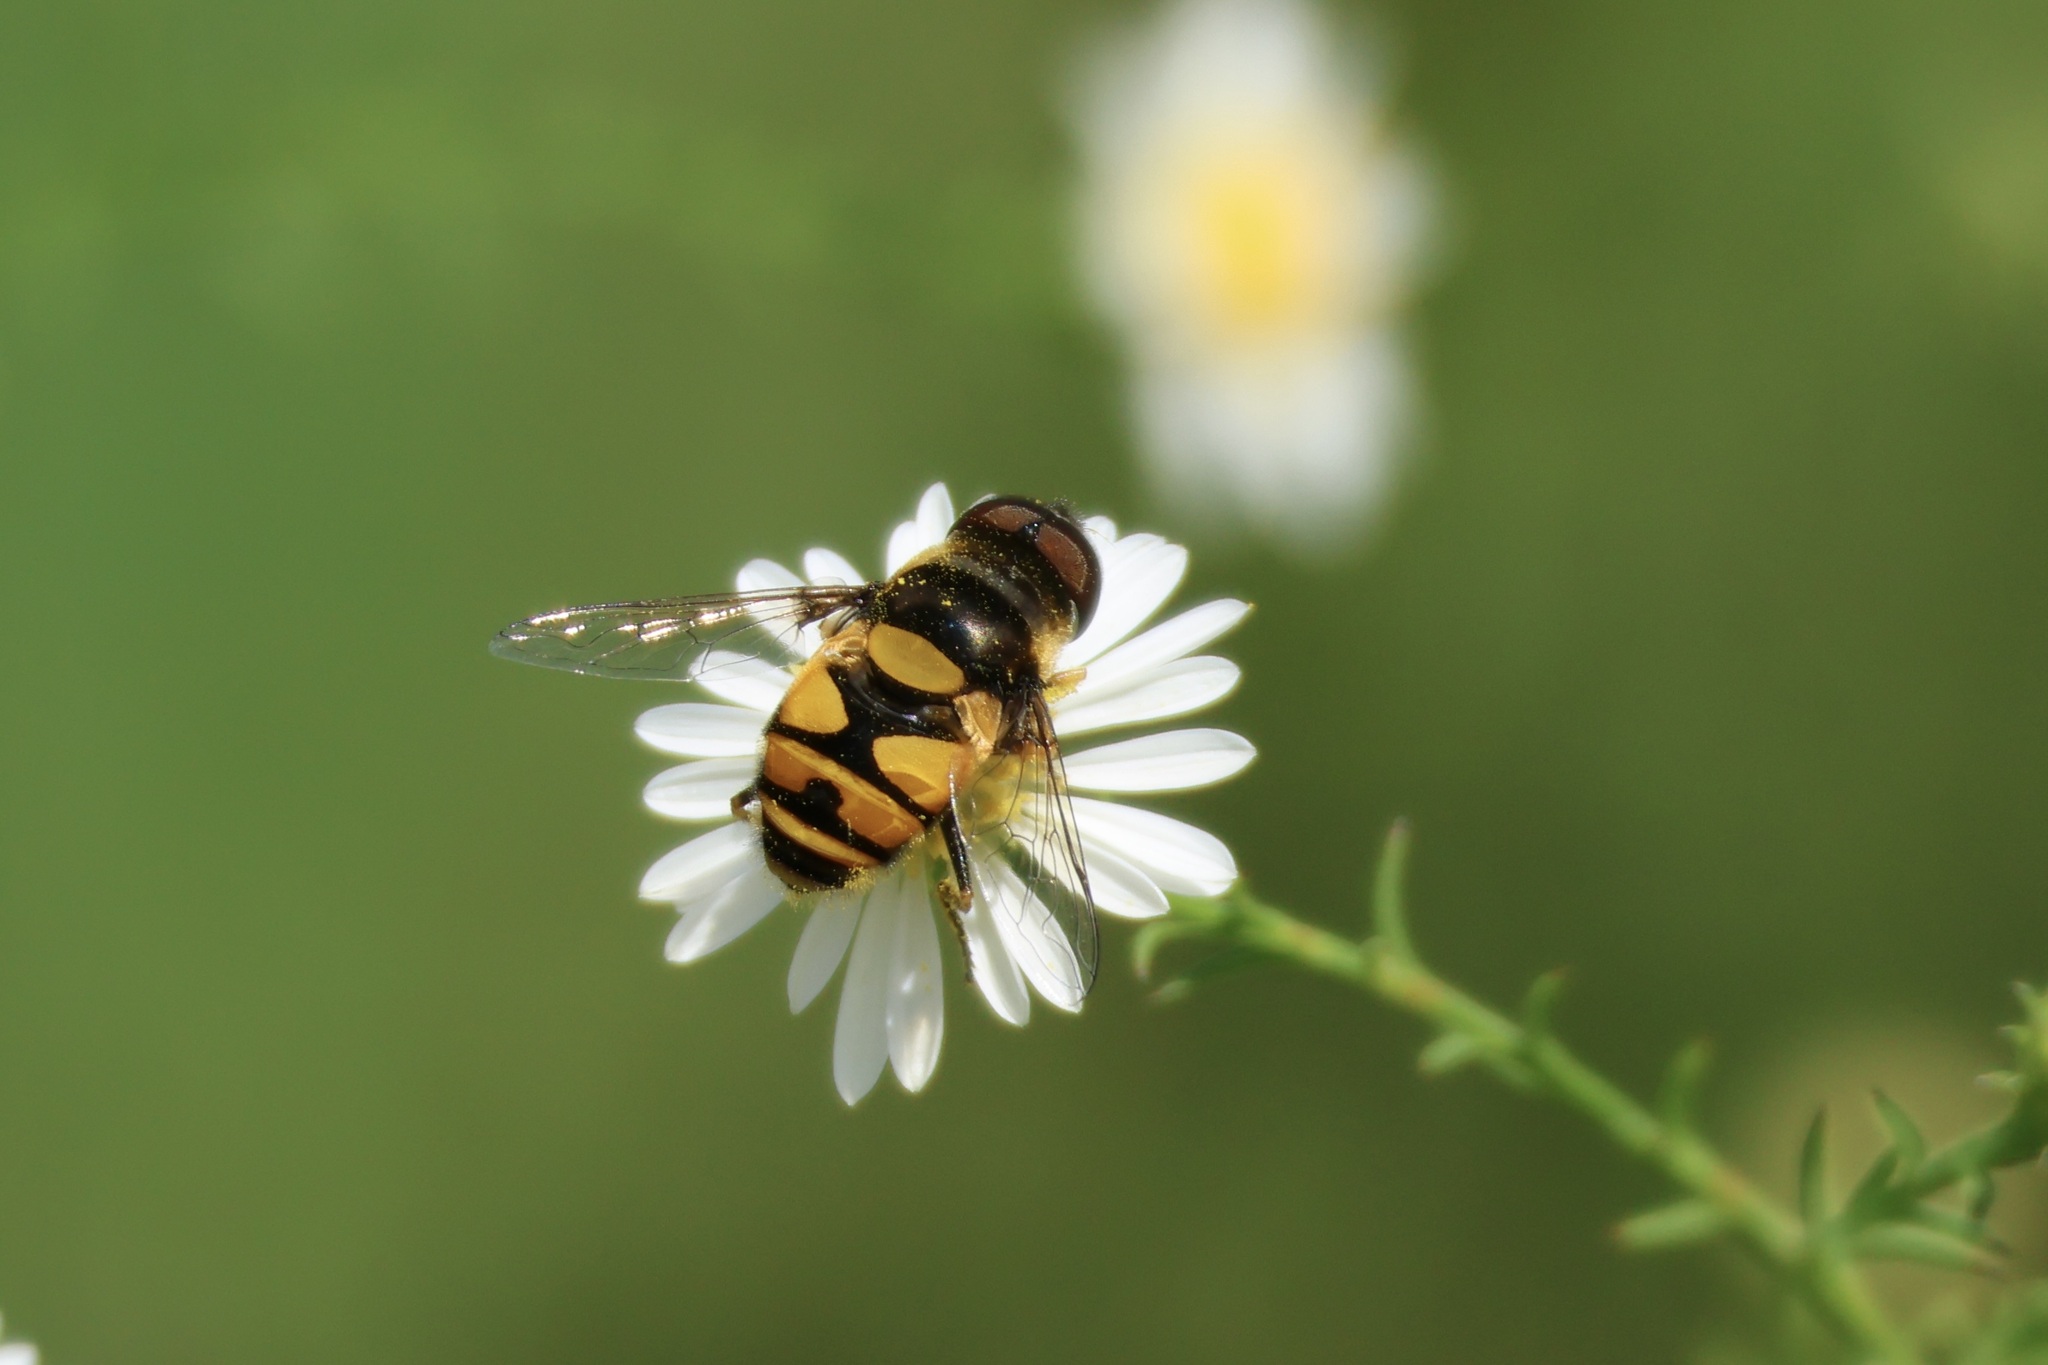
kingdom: Animalia
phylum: Arthropoda
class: Insecta
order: Diptera
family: Syrphidae
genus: Eristalis
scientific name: Eristalis transversa
